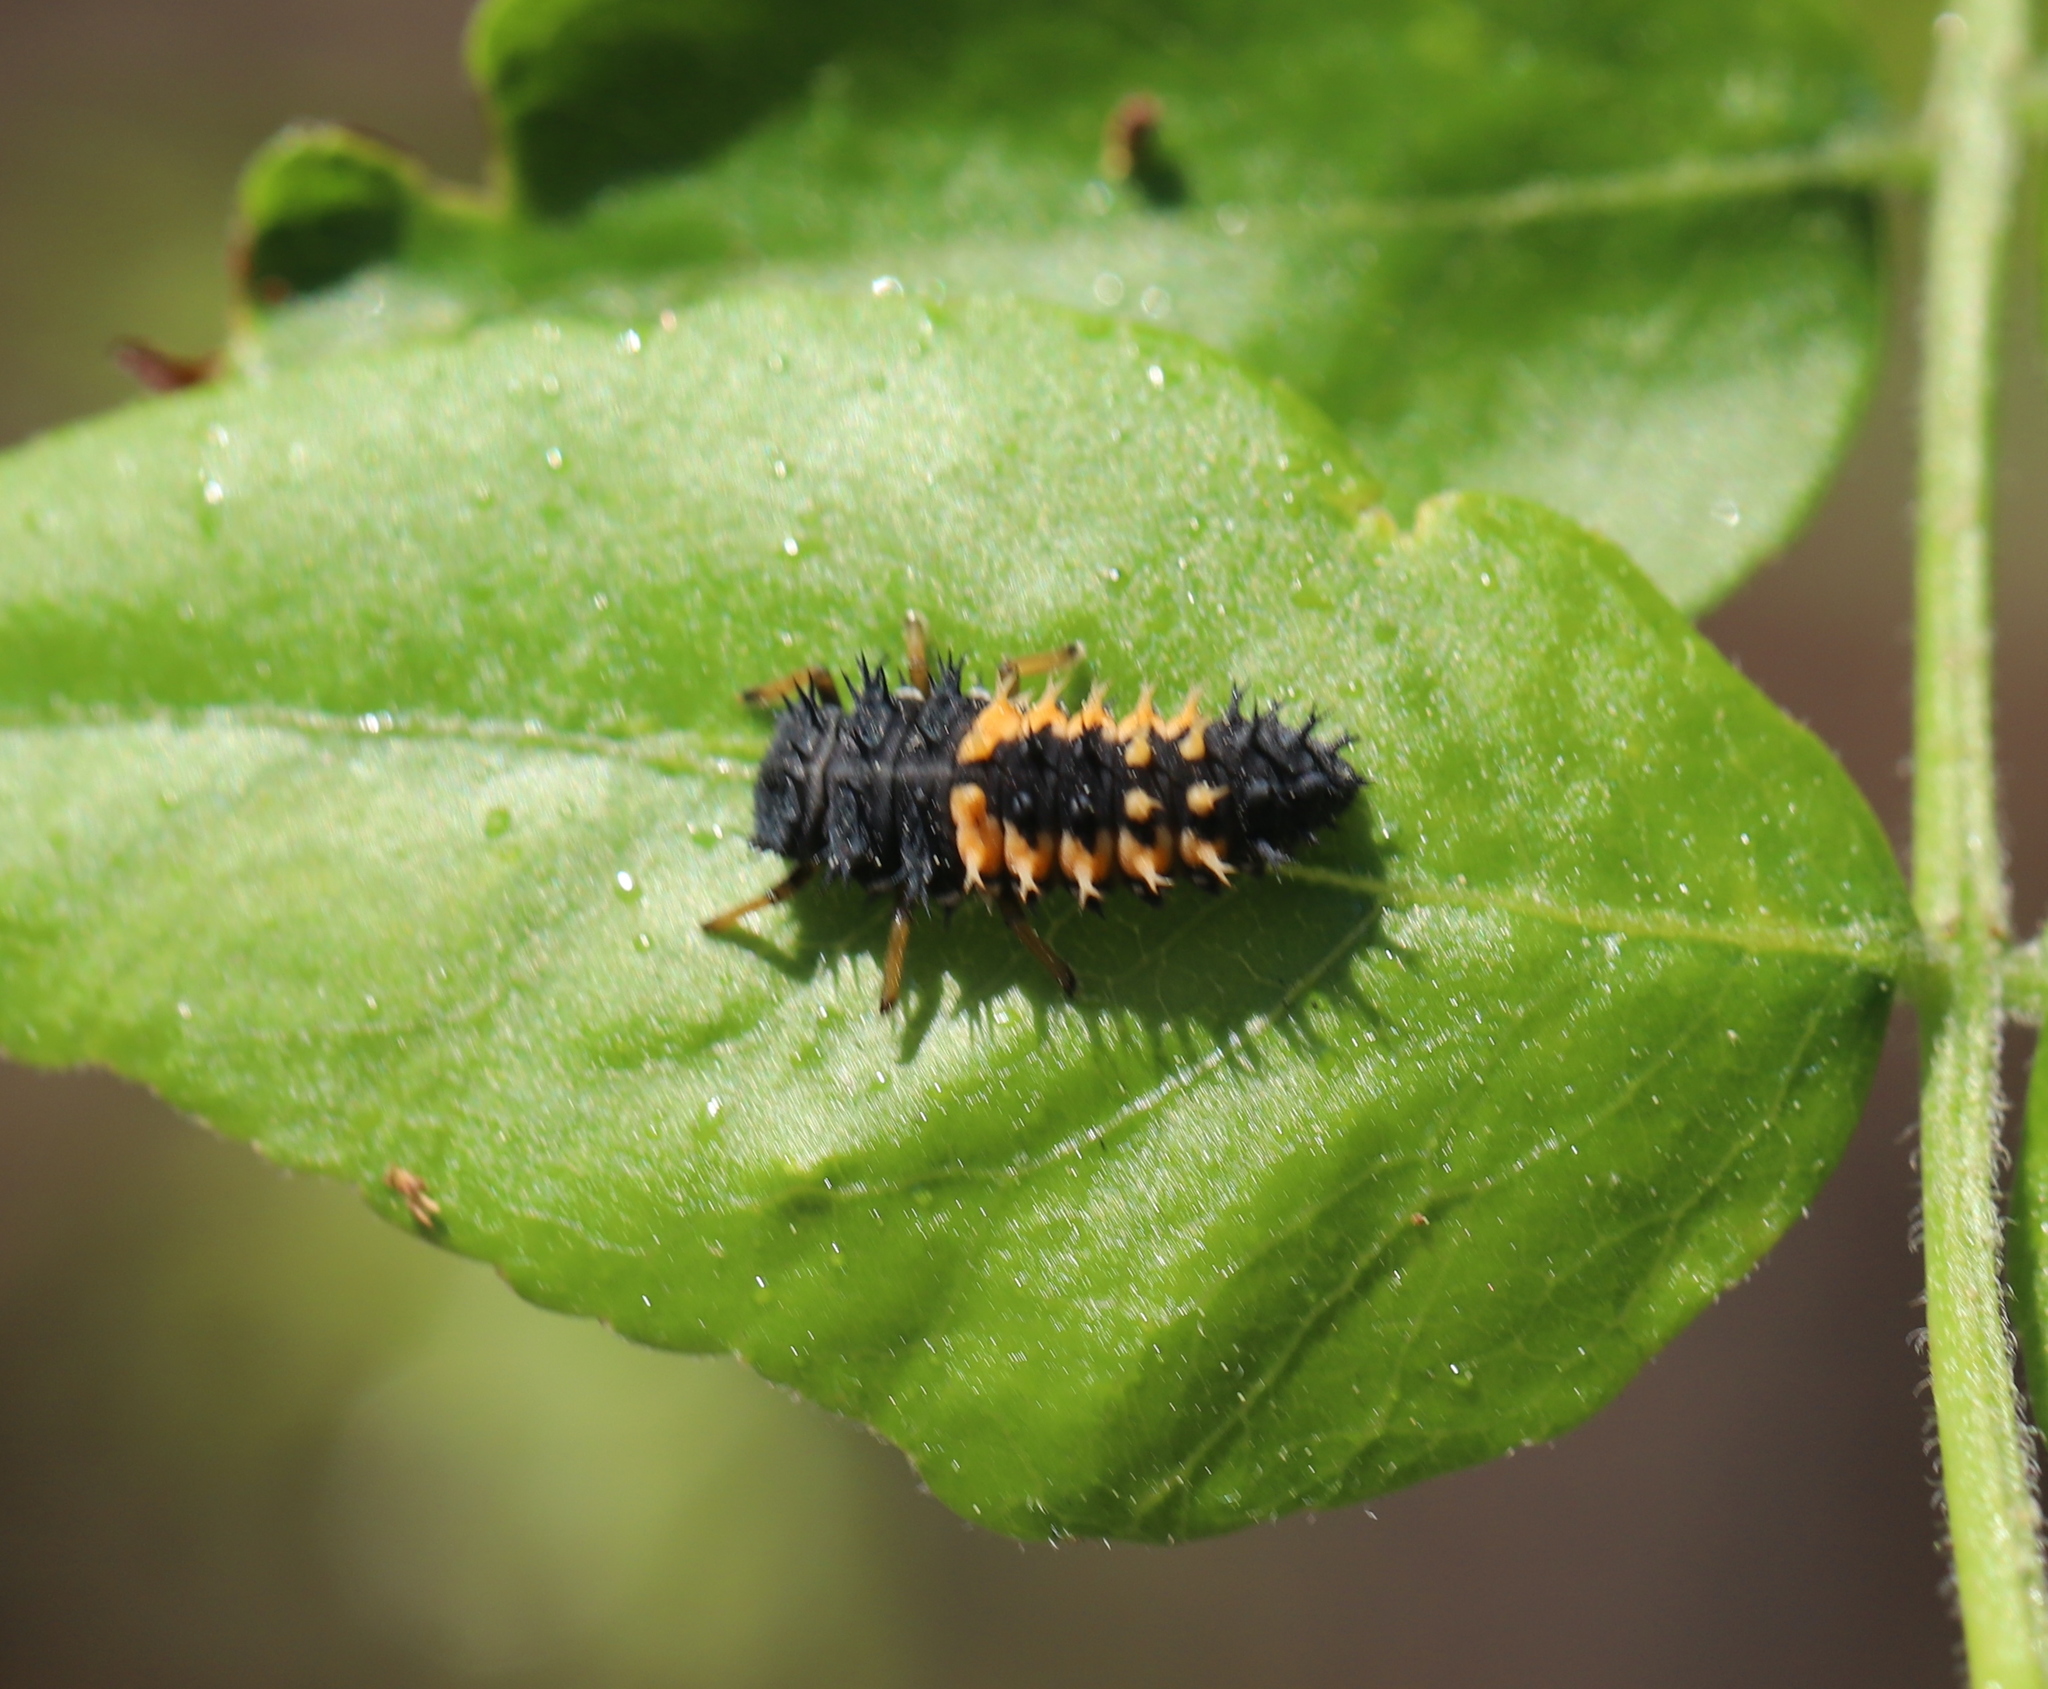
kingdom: Animalia
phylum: Arthropoda
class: Insecta
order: Coleoptera
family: Coccinellidae
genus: Harmonia
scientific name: Harmonia axyridis
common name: Harlequin ladybird
